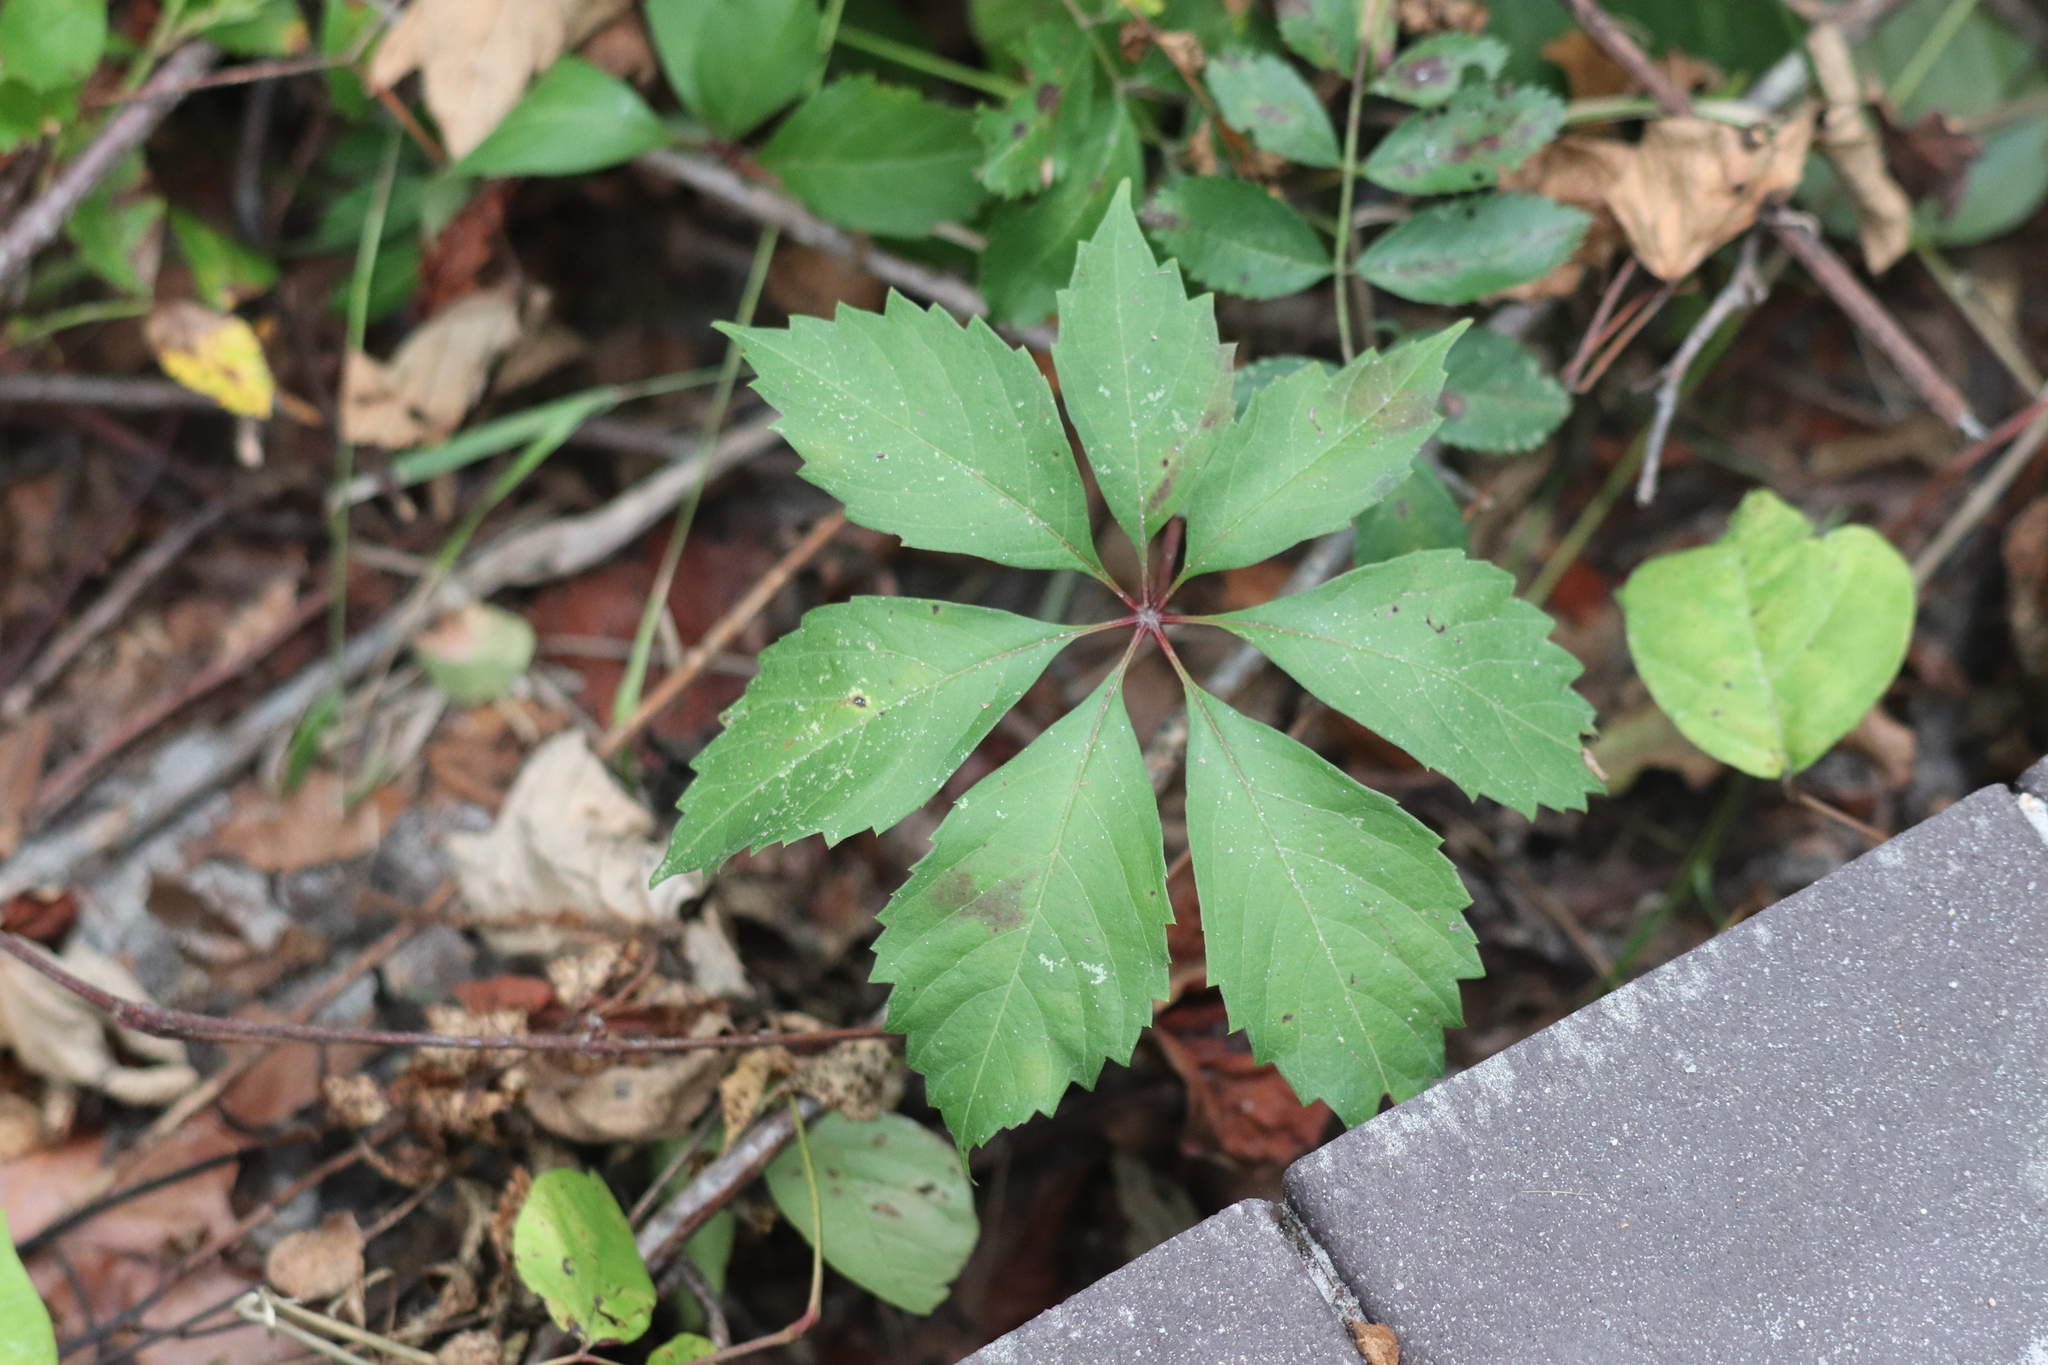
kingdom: Plantae
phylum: Tracheophyta
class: Magnoliopsida
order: Vitales
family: Vitaceae
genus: Parthenocissus
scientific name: Parthenocissus quinquefolia
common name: Virginia-creeper
